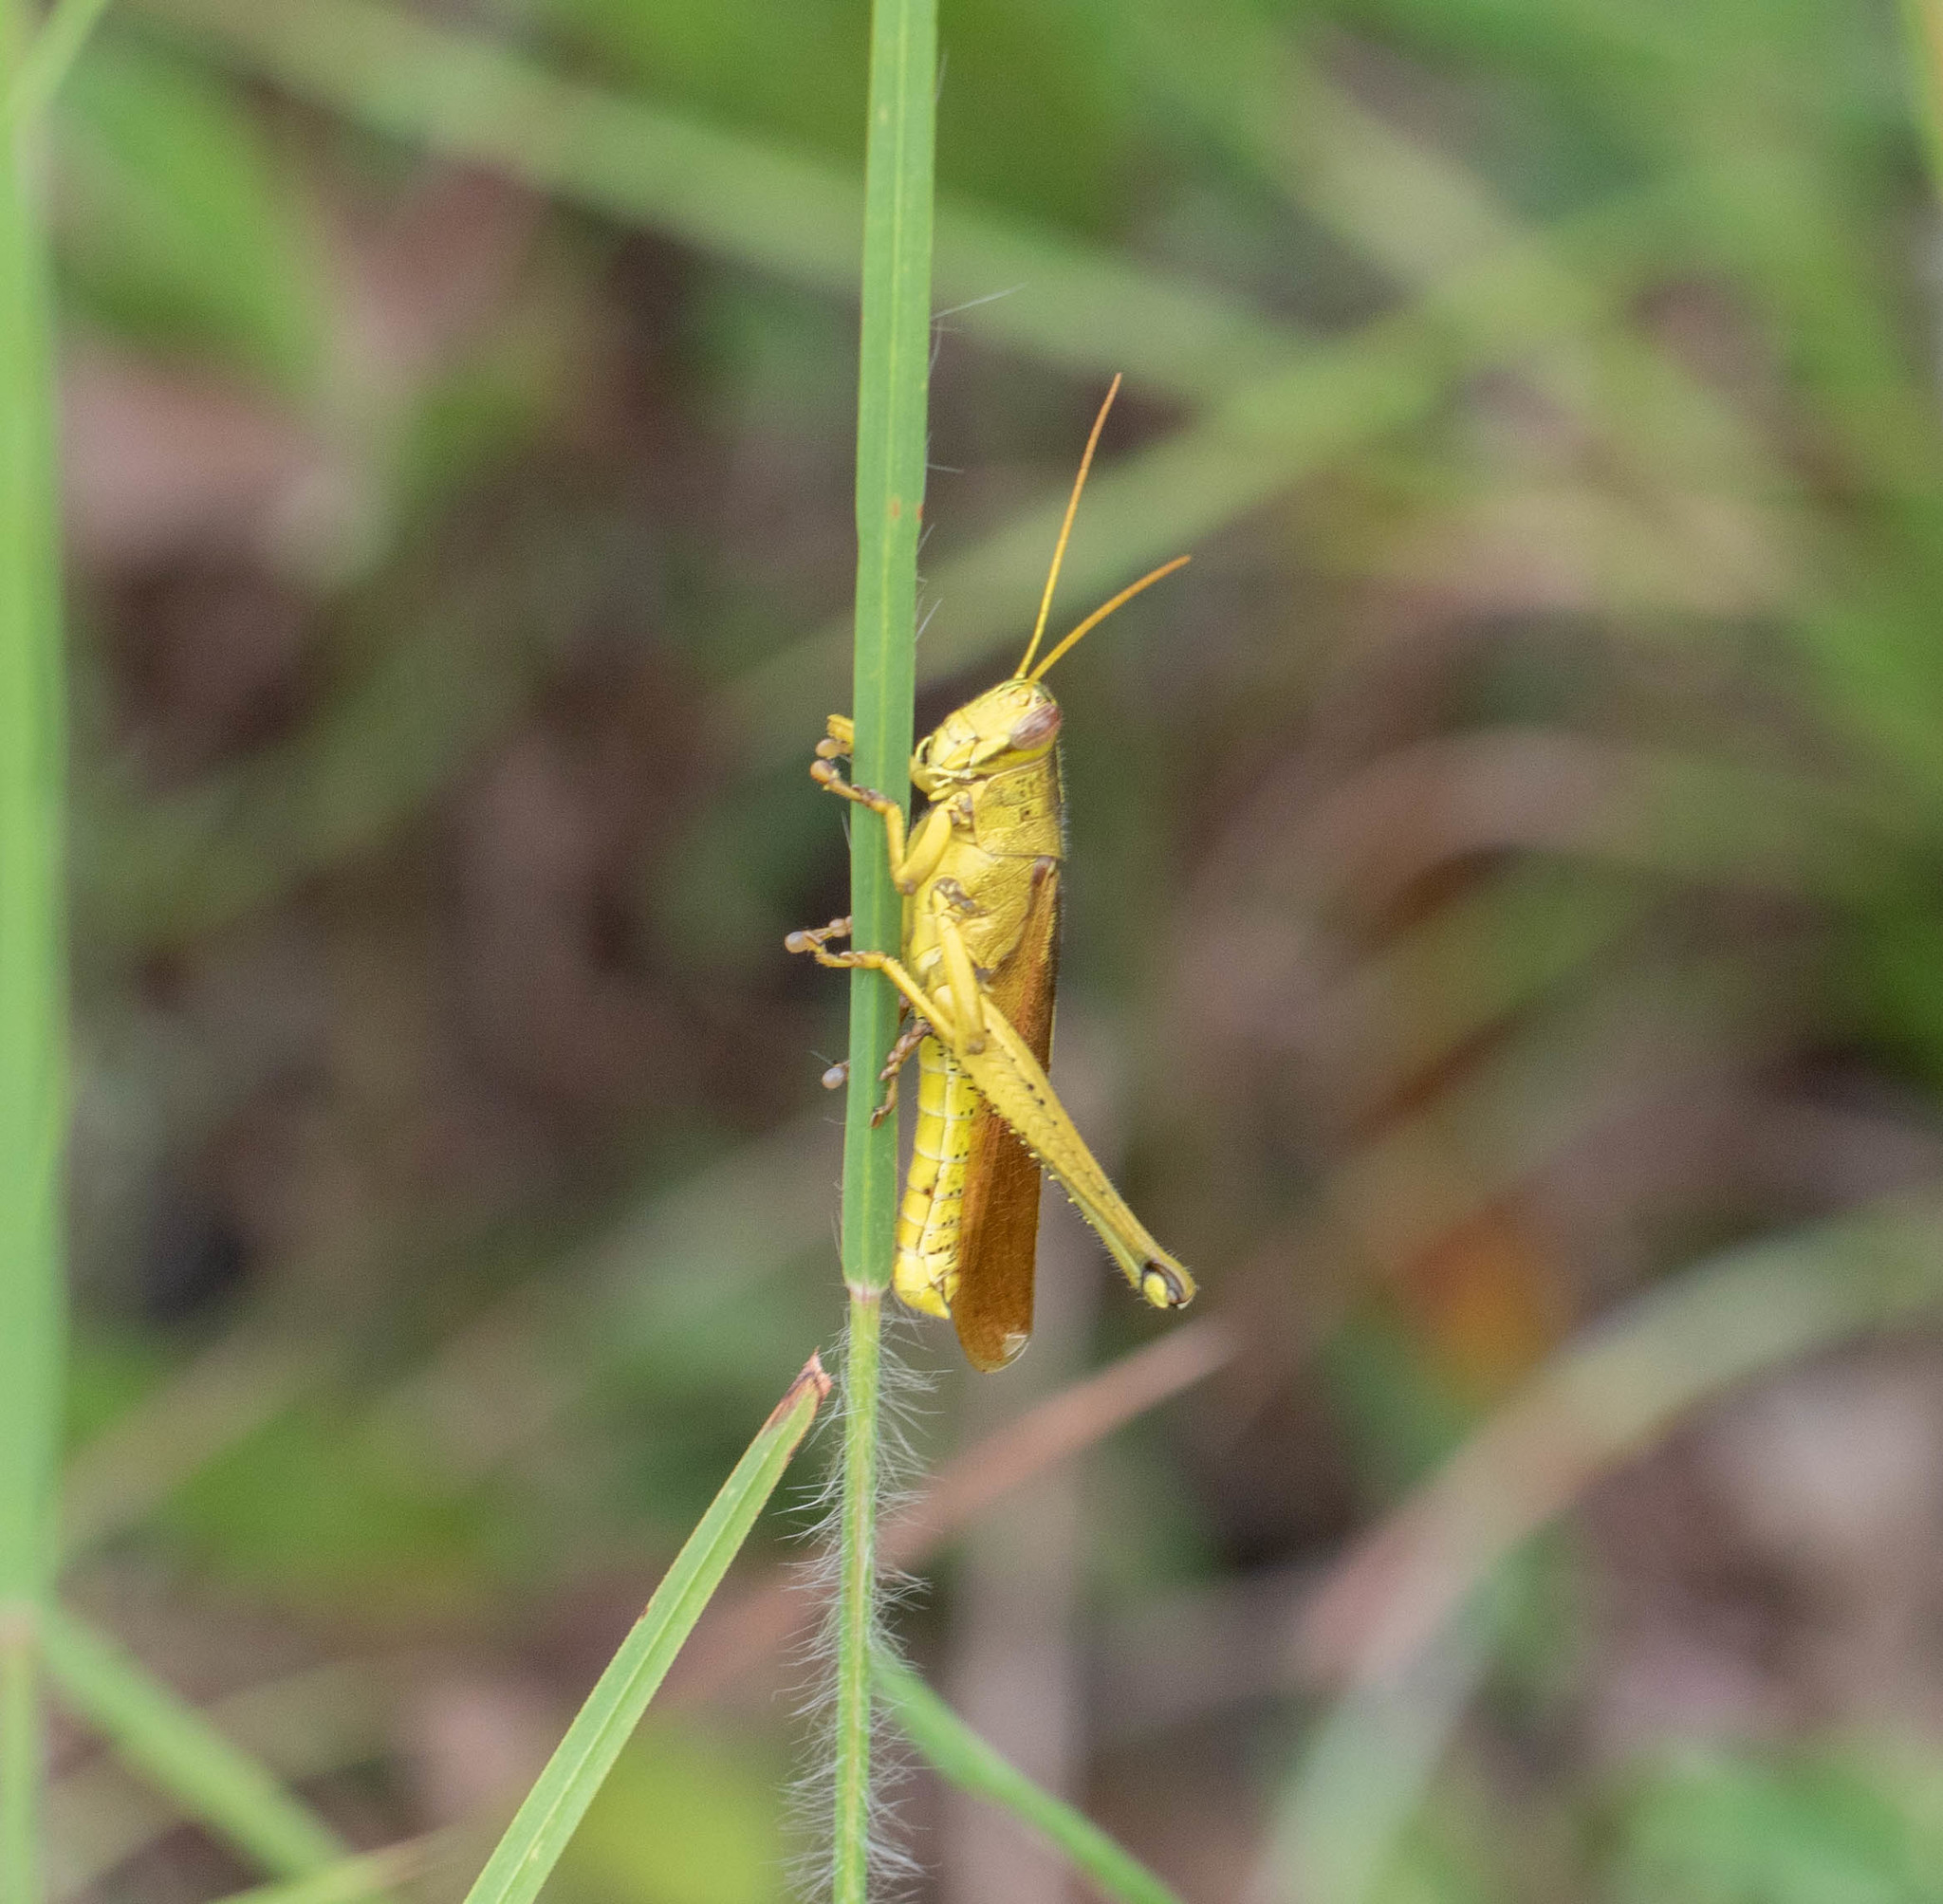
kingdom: Animalia
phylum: Arthropoda
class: Insecta
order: Orthoptera
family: Acrididae
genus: Schistocerca
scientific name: Schistocerca alutacea
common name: Leather-colored bird locust
